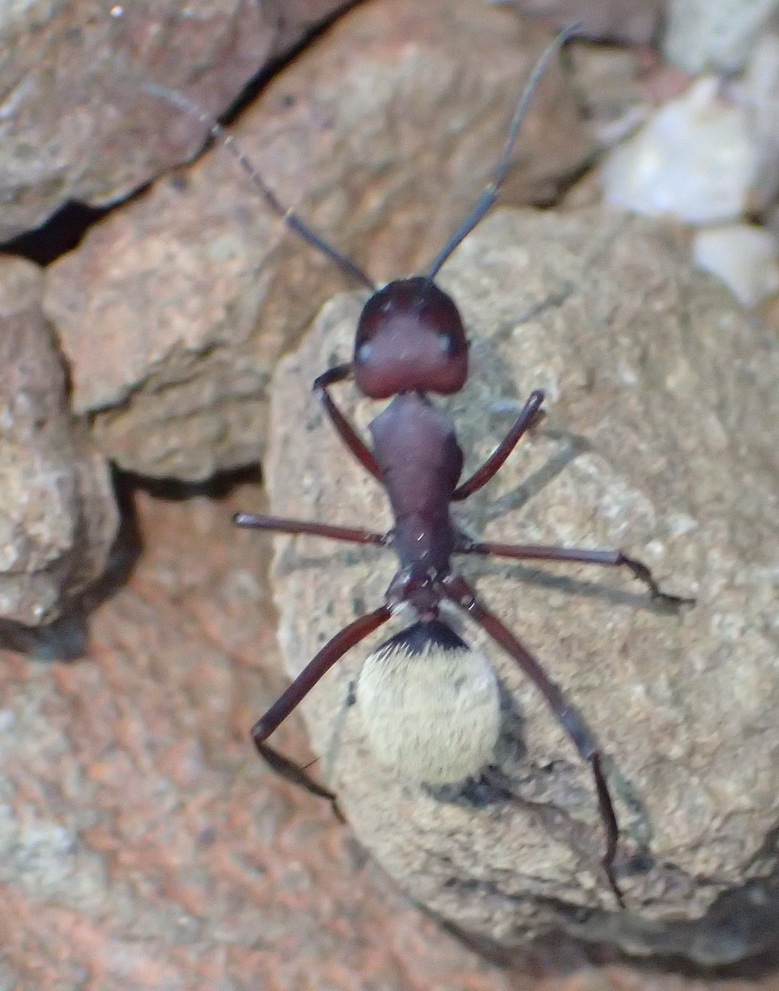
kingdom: Animalia
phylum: Arthropoda
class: Insecta
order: Hymenoptera
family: Formicidae
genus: Camponotus
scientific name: Camponotus storeatus
